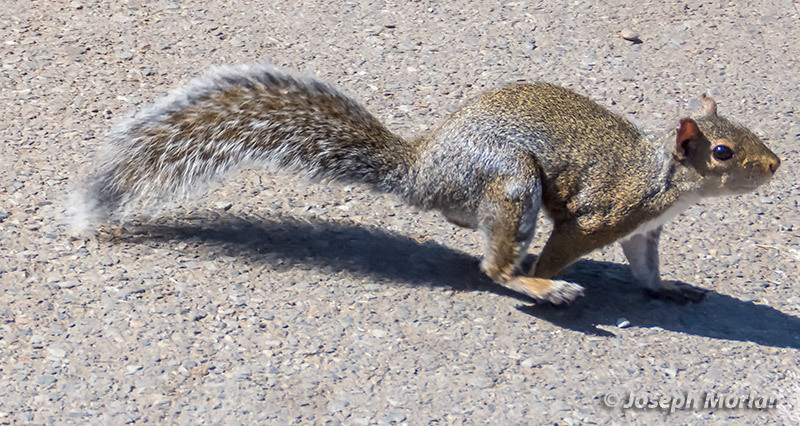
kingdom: Animalia
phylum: Chordata
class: Mammalia
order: Rodentia
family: Sciuridae
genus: Sciurus
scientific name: Sciurus carolinensis
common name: Eastern gray squirrel
